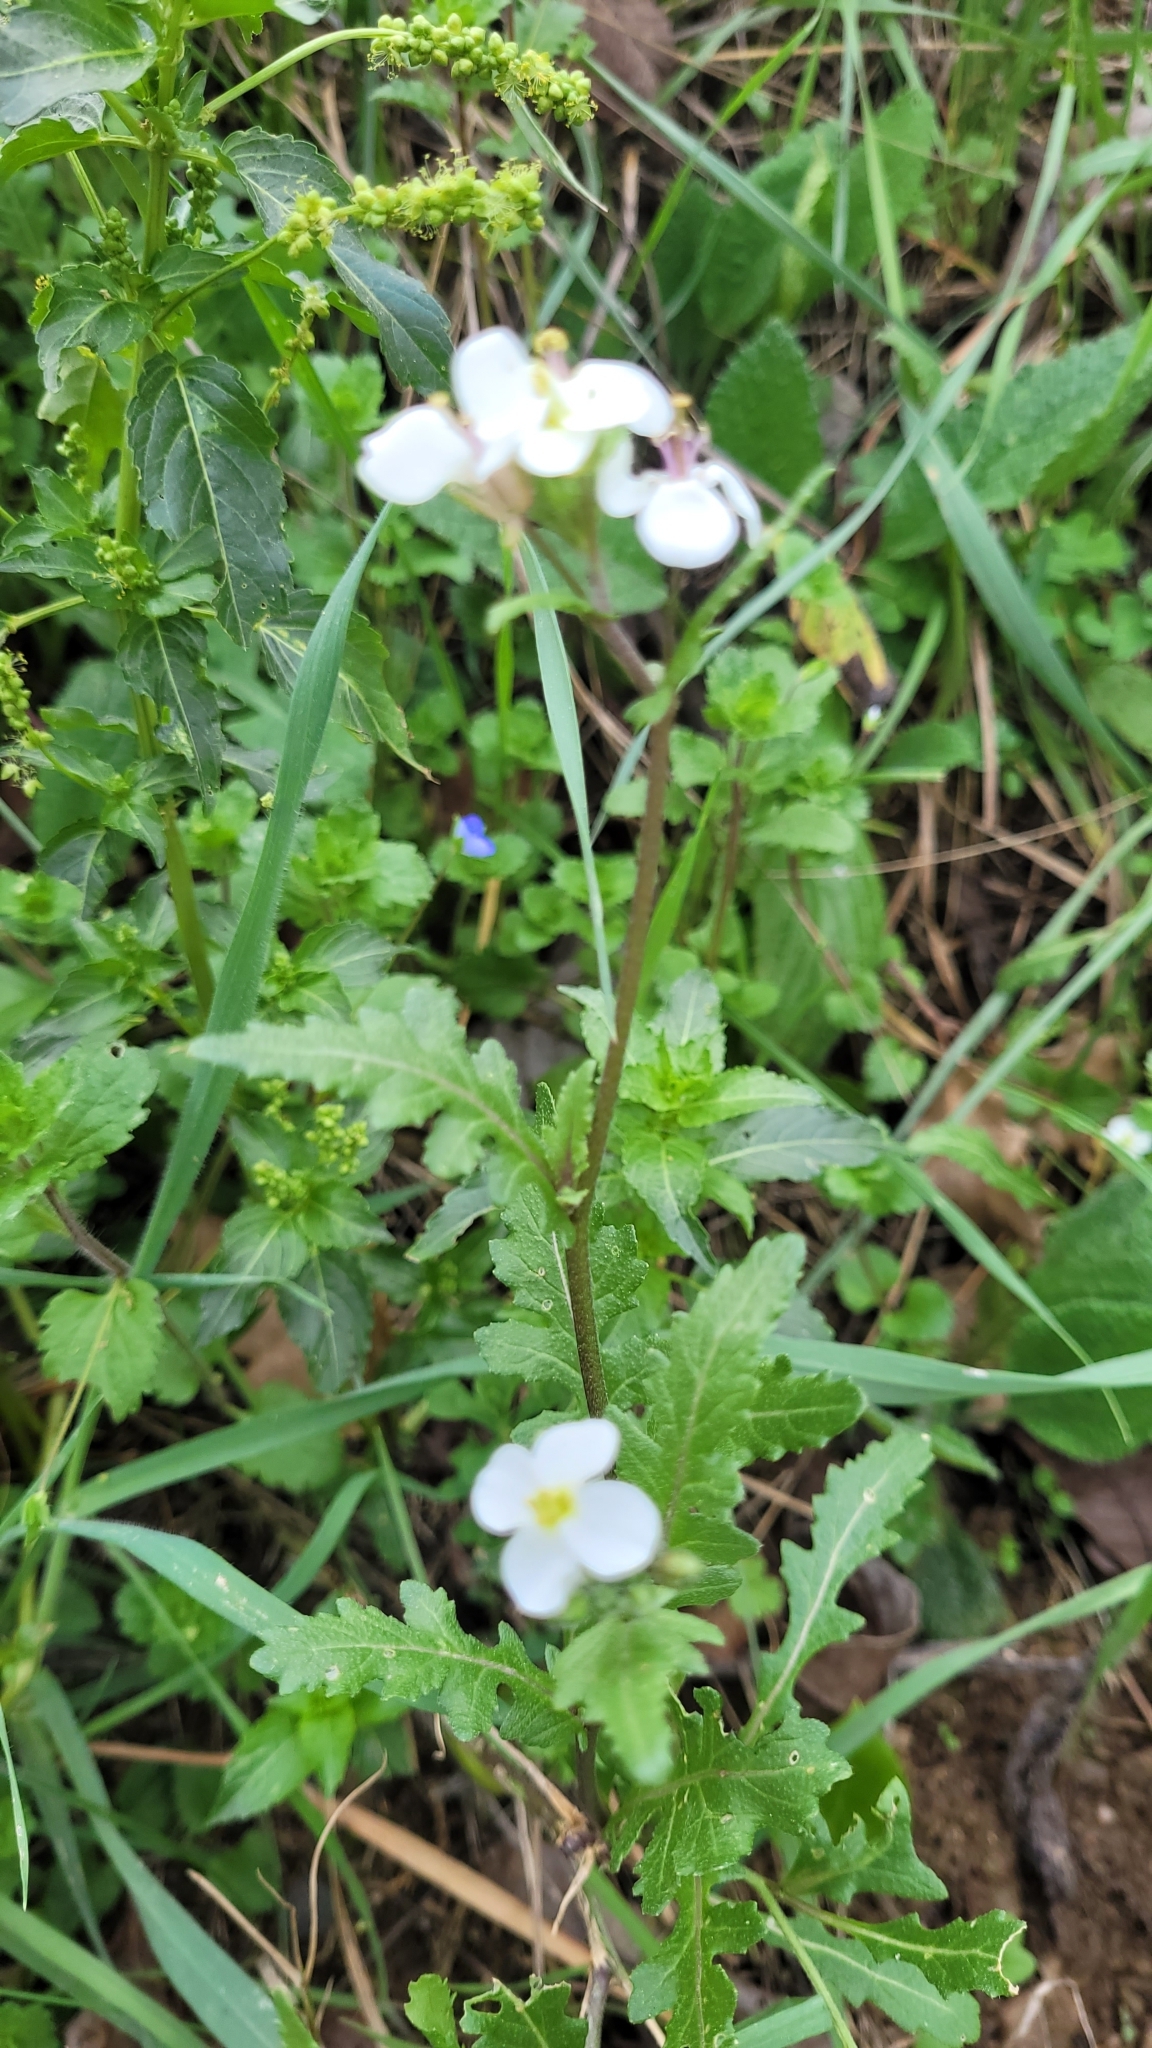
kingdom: Plantae
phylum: Tracheophyta
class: Magnoliopsida
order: Brassicales
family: Brassicaceae
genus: Diplotaxis
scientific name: Diplotaxis erucoides
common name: White rocket
